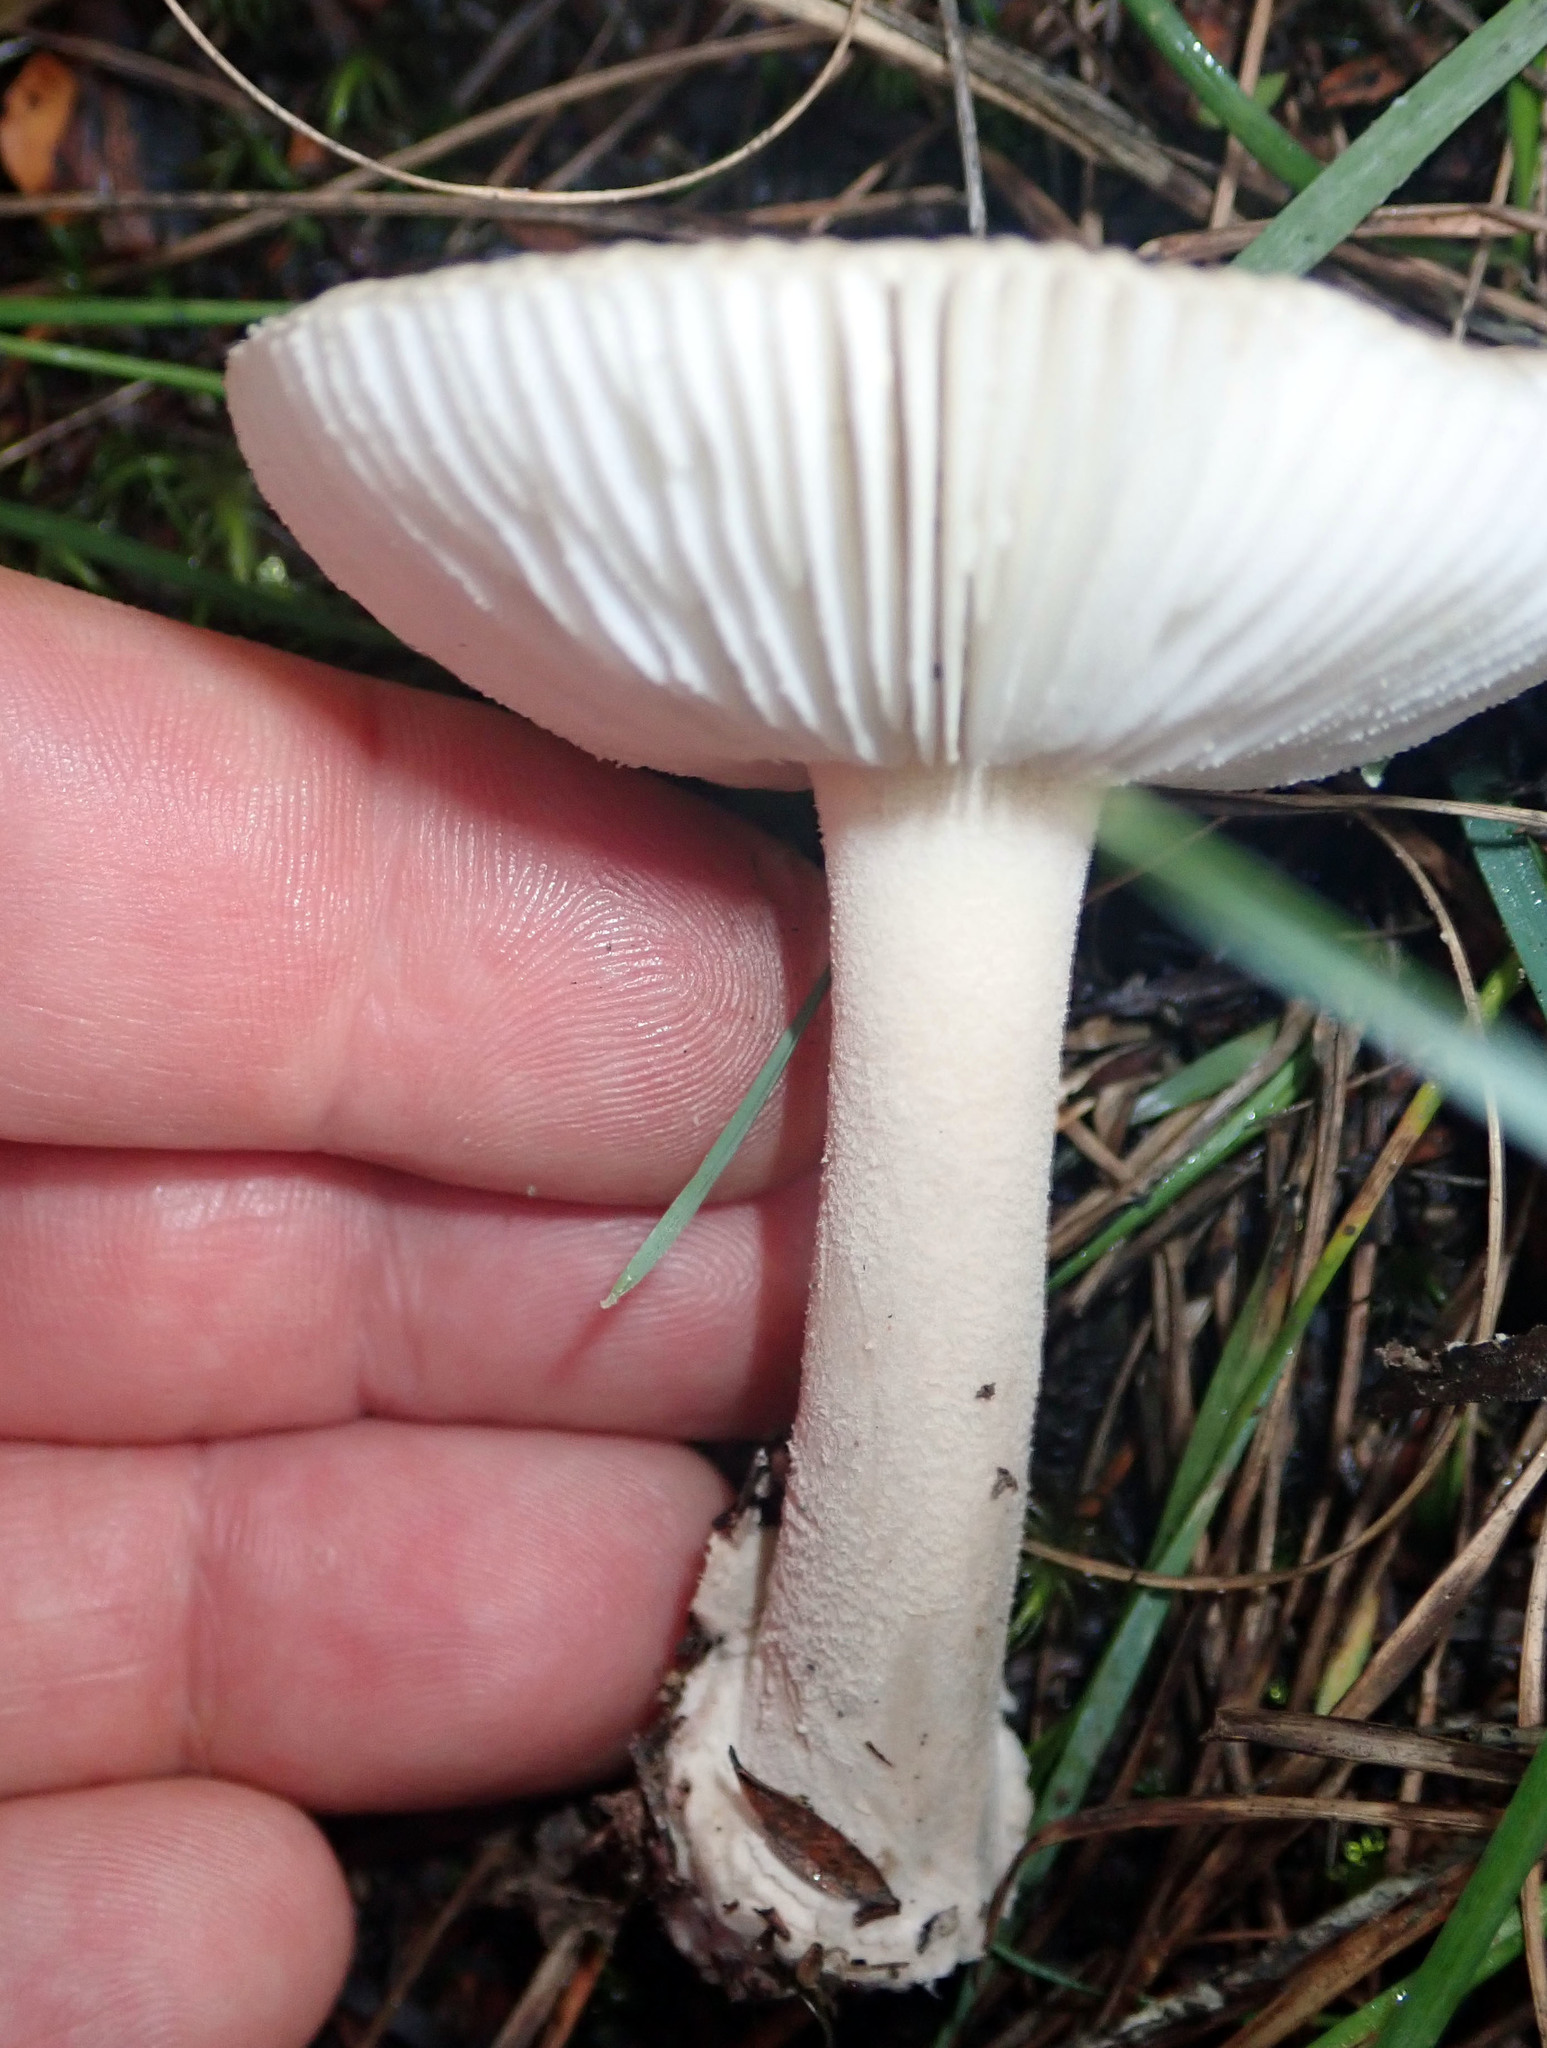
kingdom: Fungi
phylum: Basidiomycota
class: Agaricomycetes
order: Agaricales
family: Amanitaceae
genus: Amanita
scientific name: Amanita taiepa
